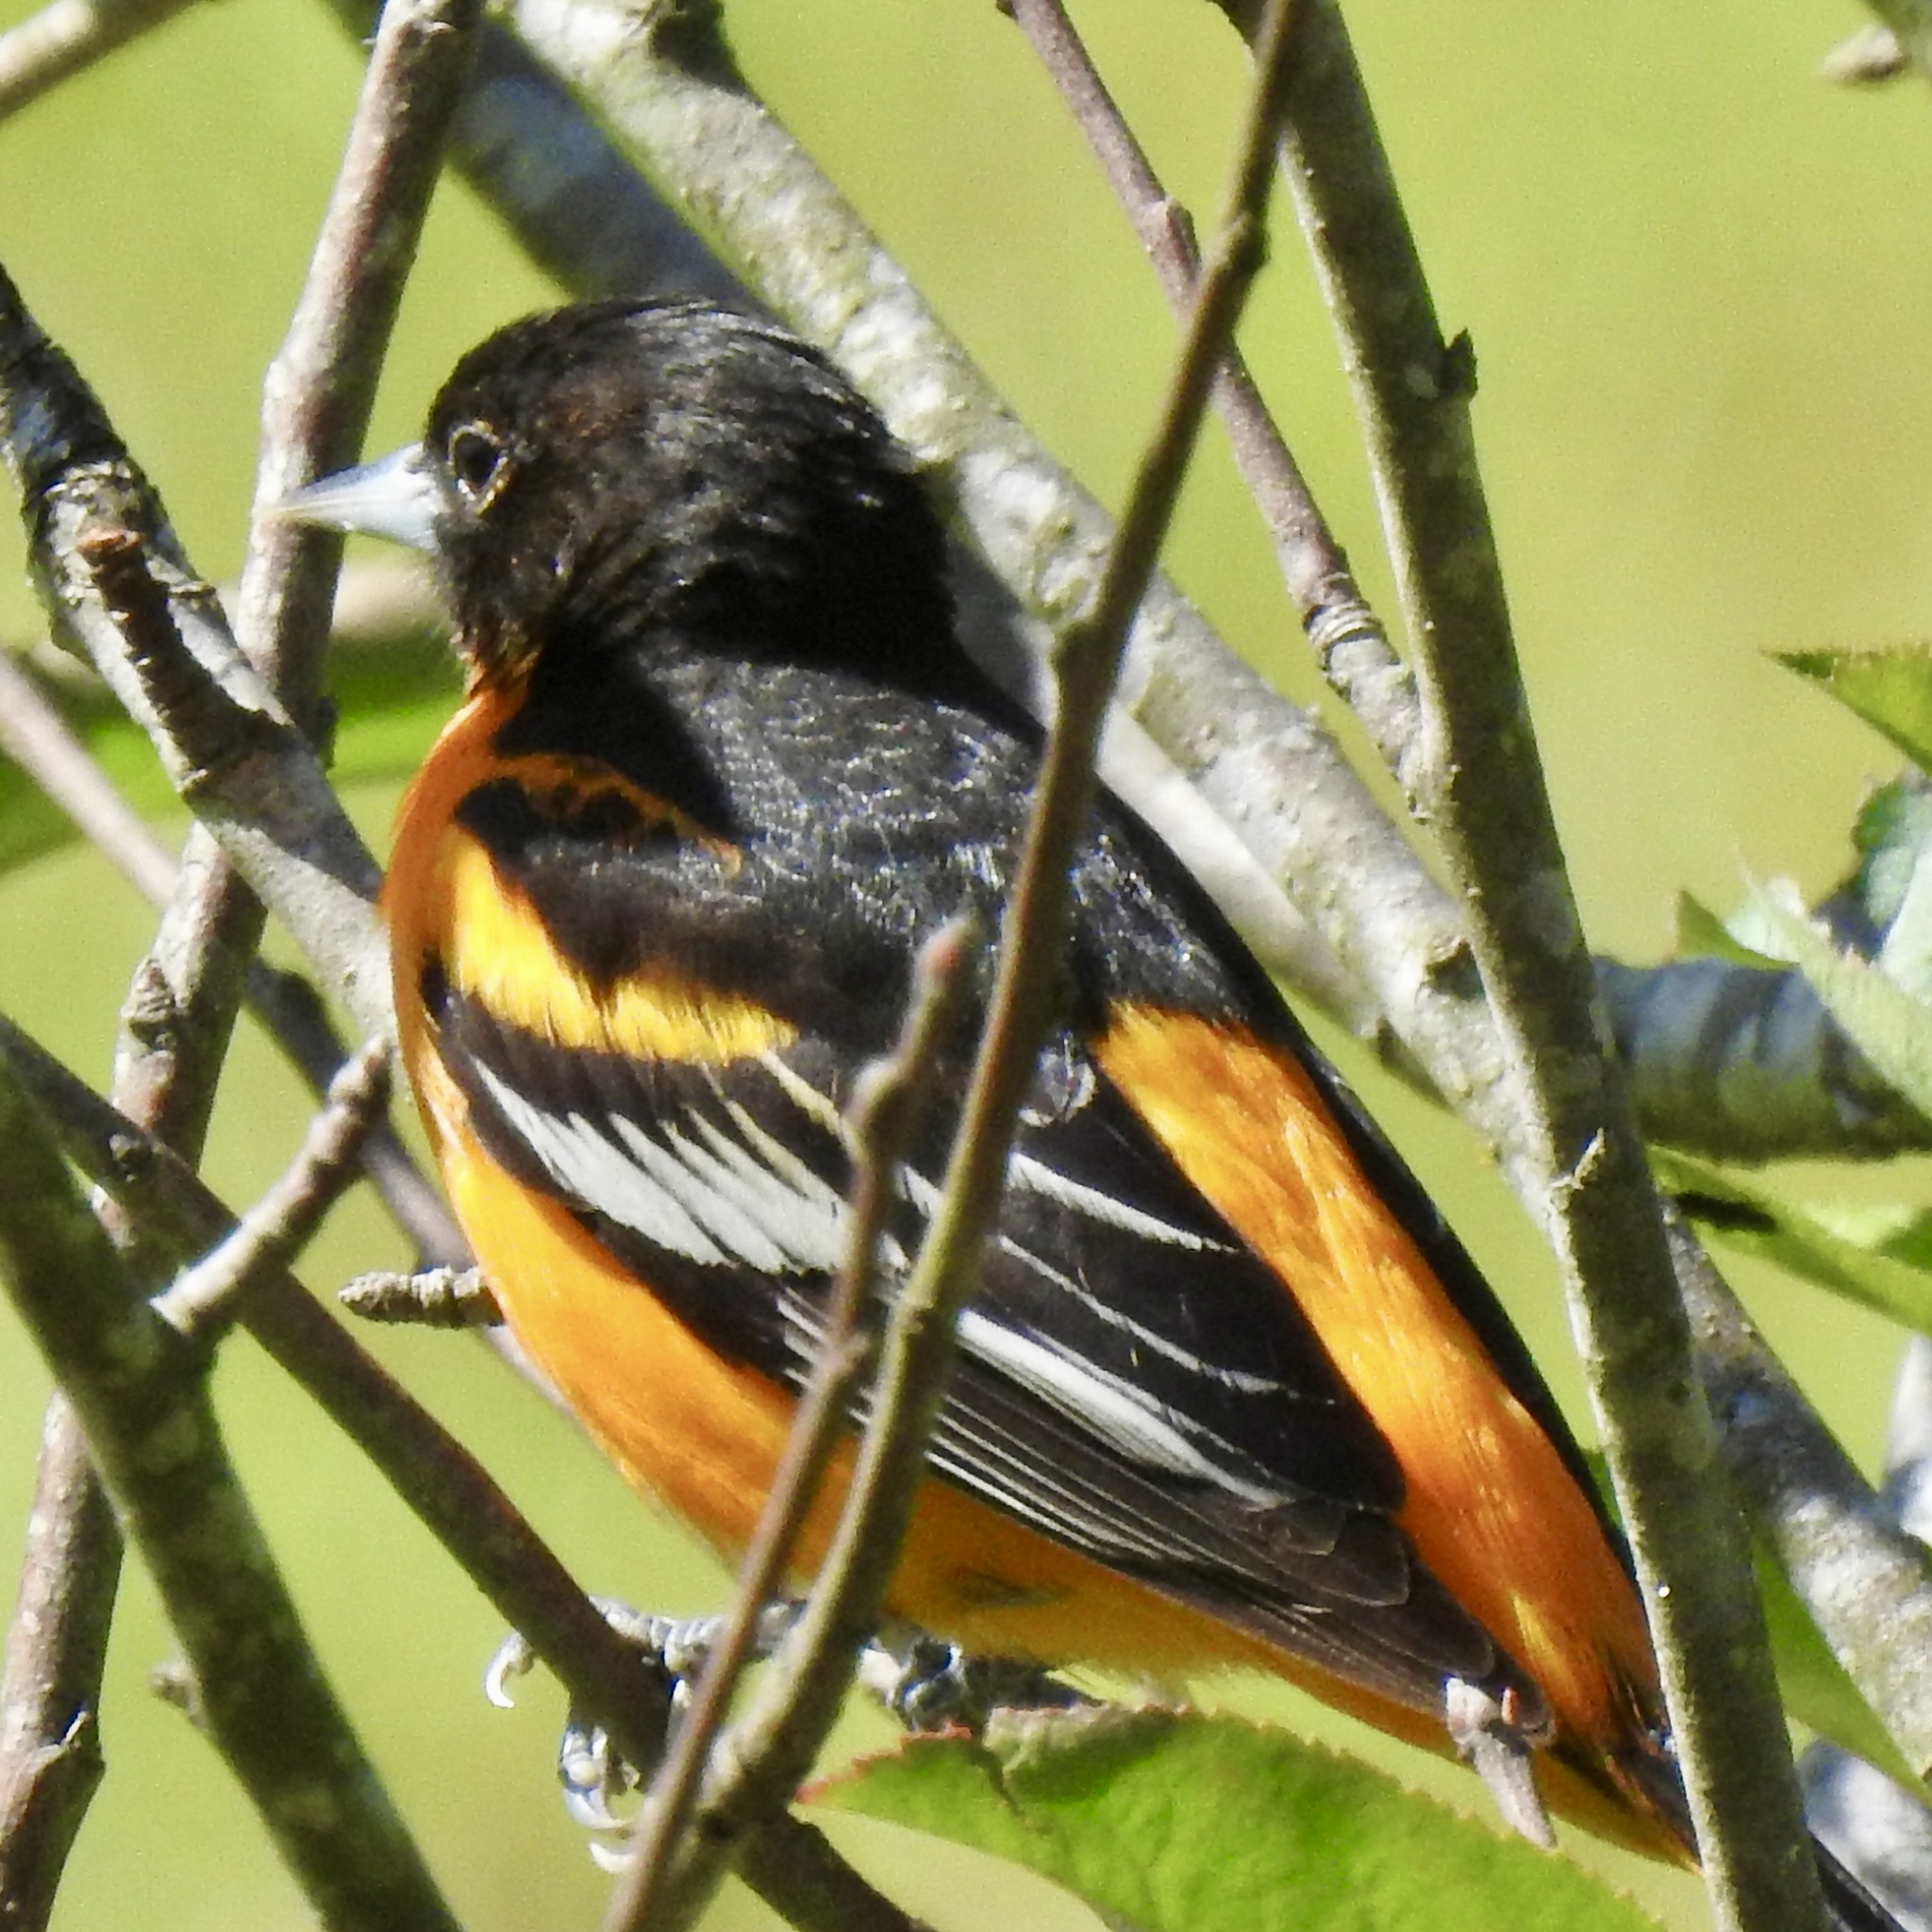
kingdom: Animalia
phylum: Chordata
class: Aves
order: Passeriformes
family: Icteridae
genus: Icterus
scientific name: Icterus galbula
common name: Baltimore oriole
